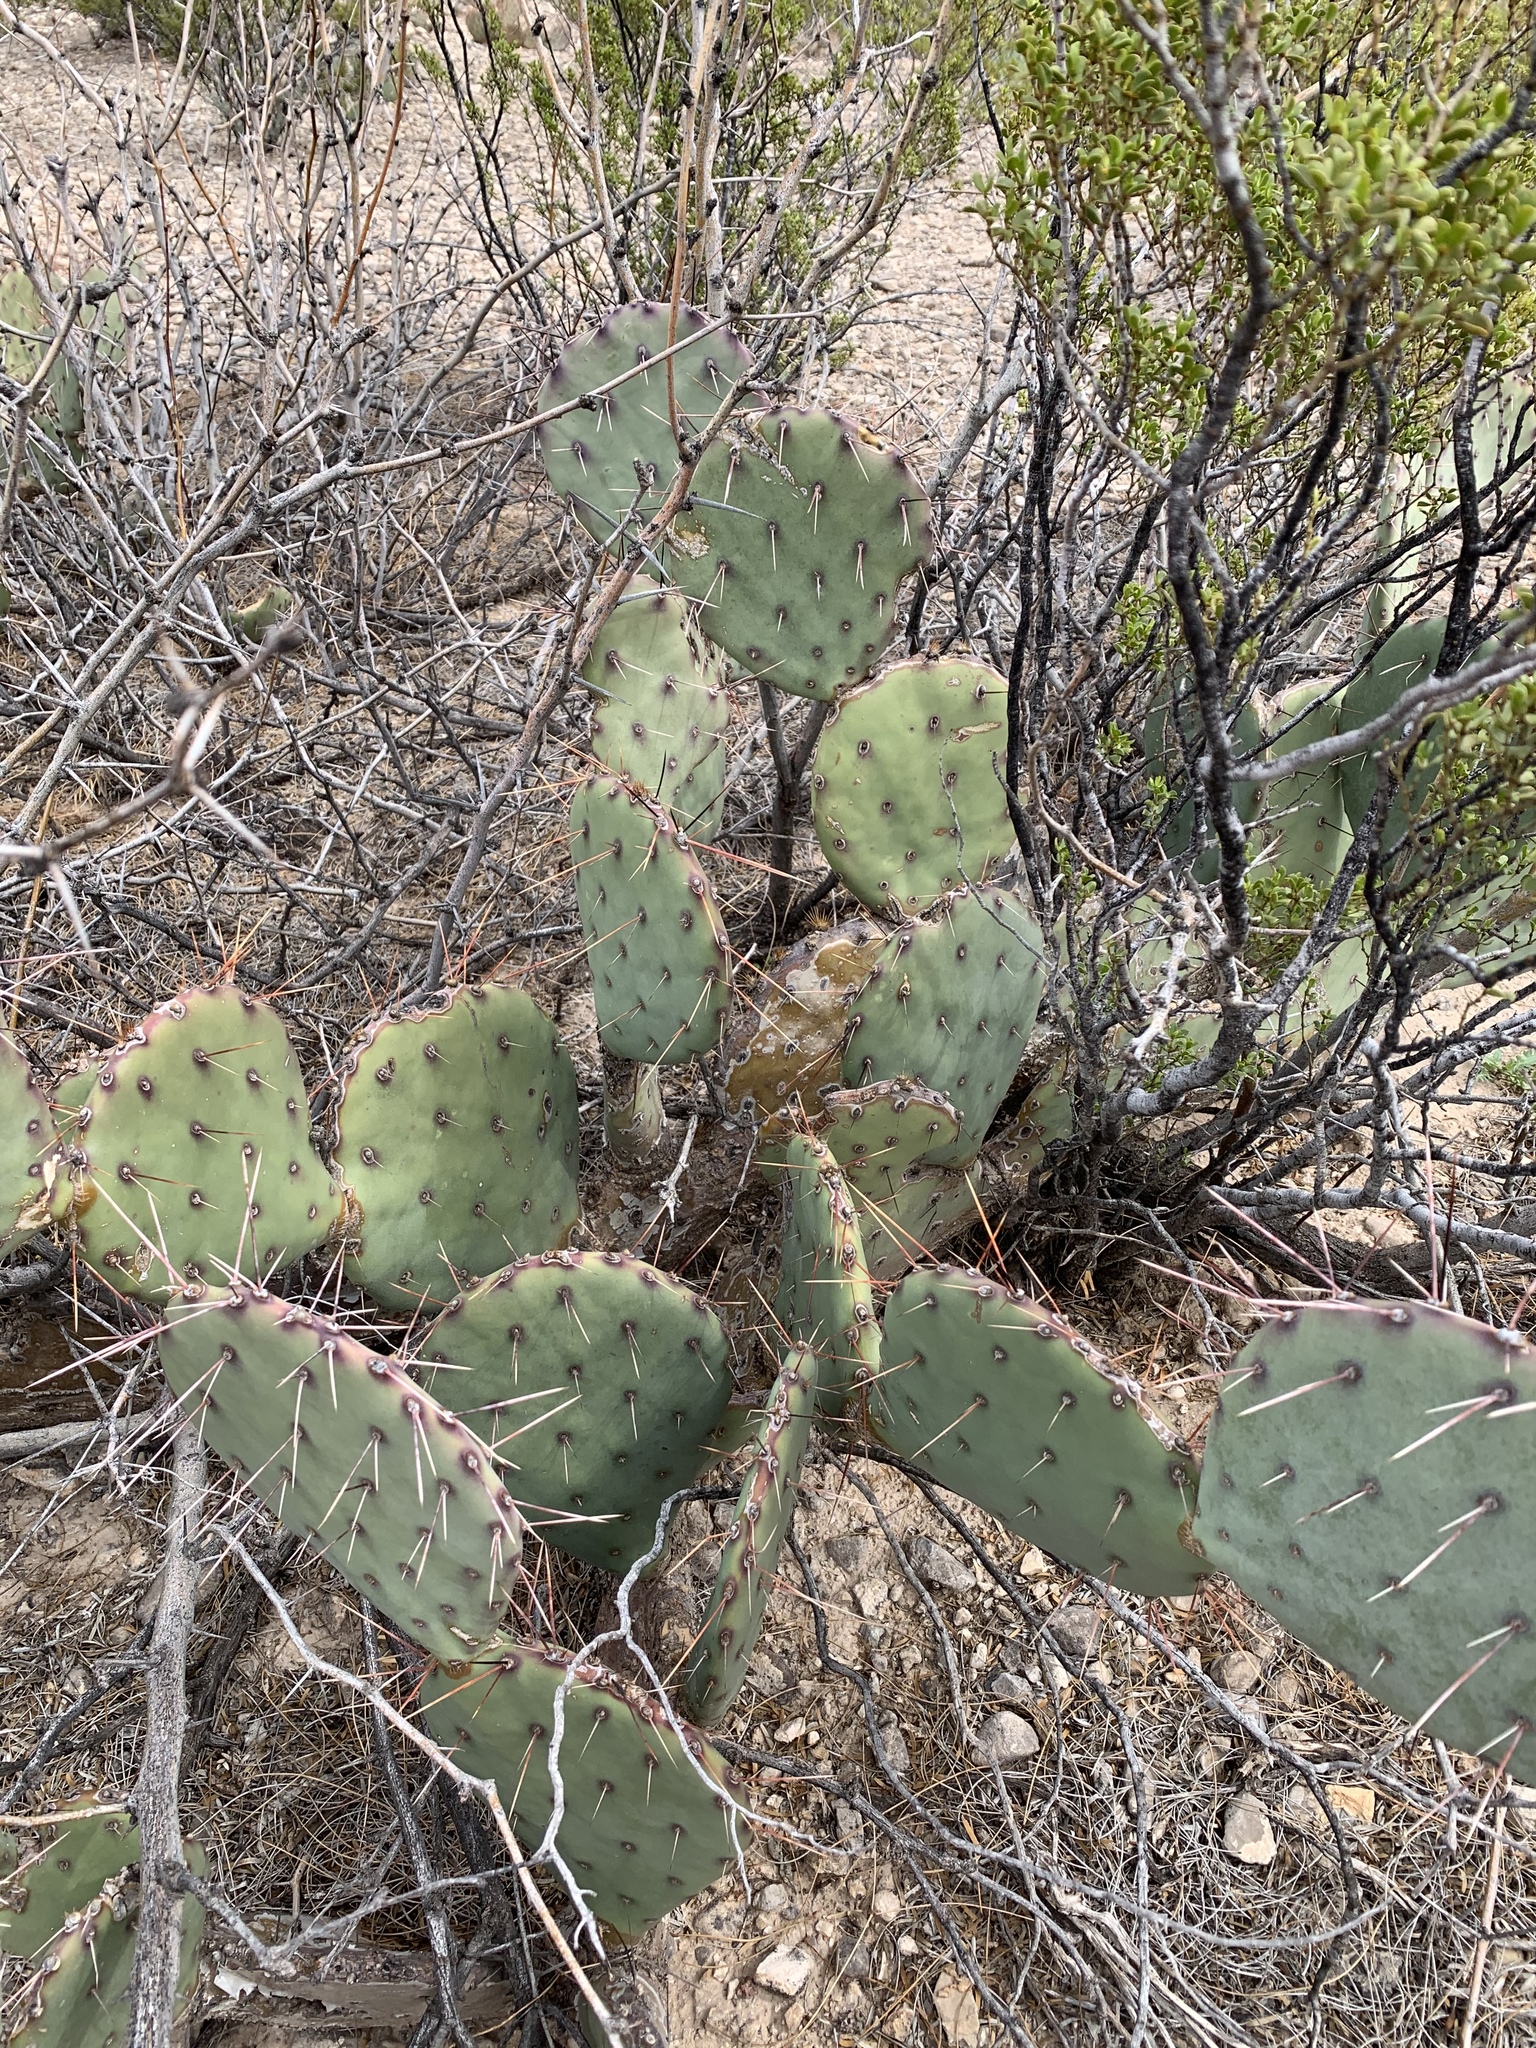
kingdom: Plantae
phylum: Tracheophyta
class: Magnoliopsida
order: Caryophyllales
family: Cactaceae
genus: Opuntia
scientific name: Opuntia phaeacantha
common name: New mexico prickly-pear
